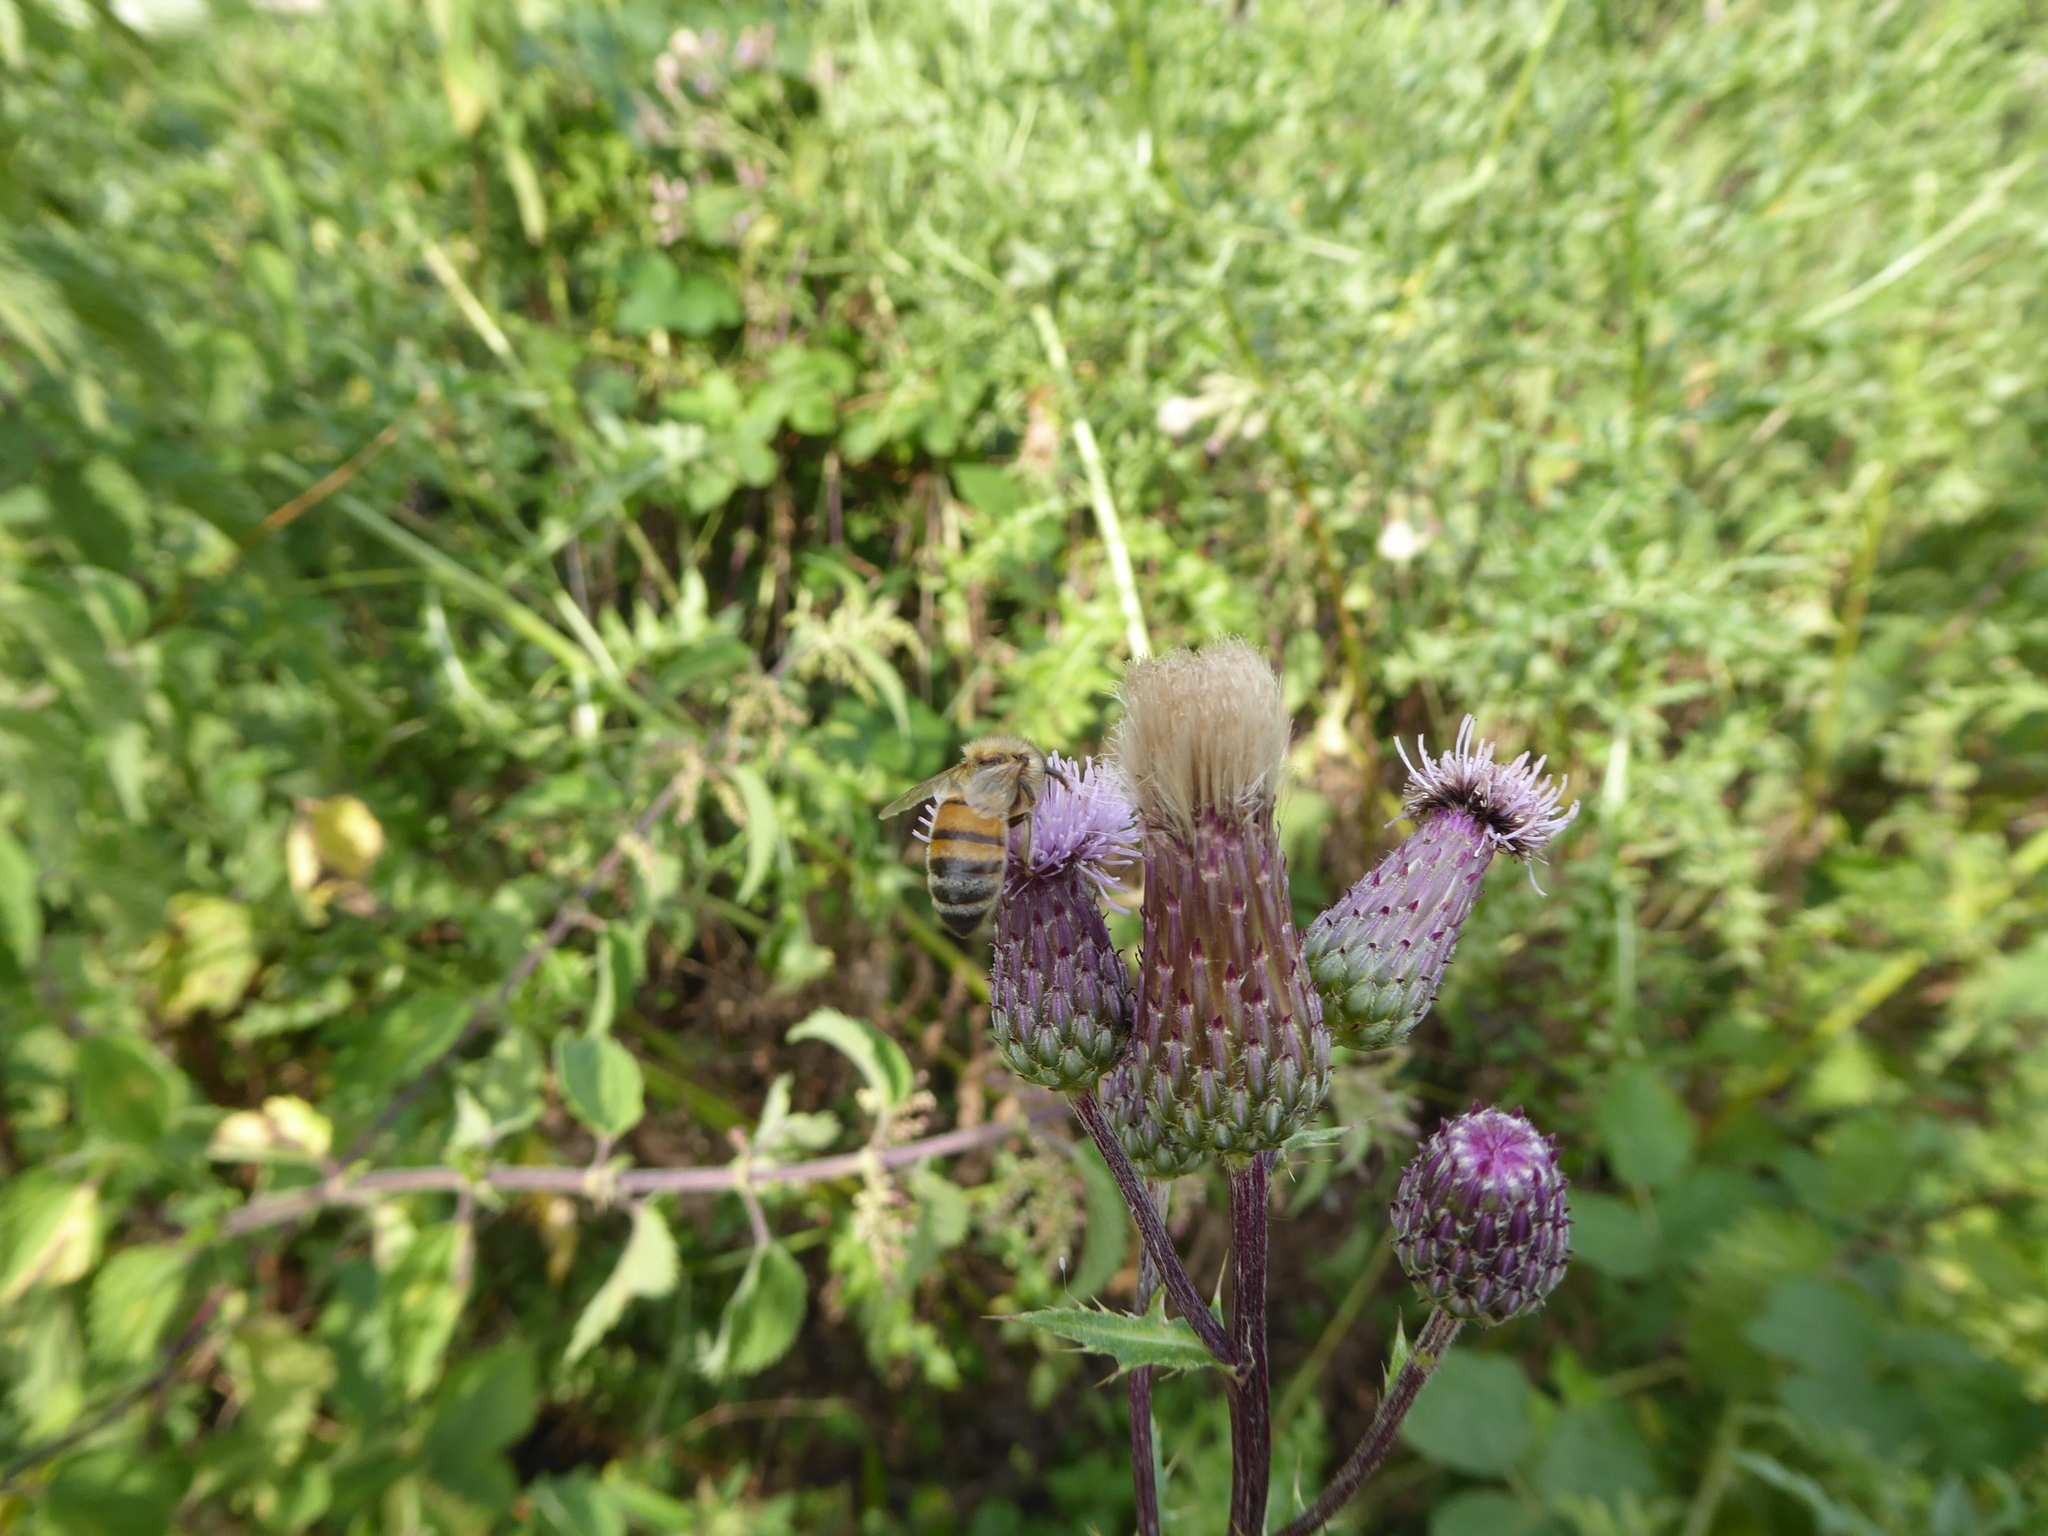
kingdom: Animalia
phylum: Arthropoda
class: Insecta
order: Hymenoptera
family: Apidae
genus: Apis
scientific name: Apis mellifera
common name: Honey bee
